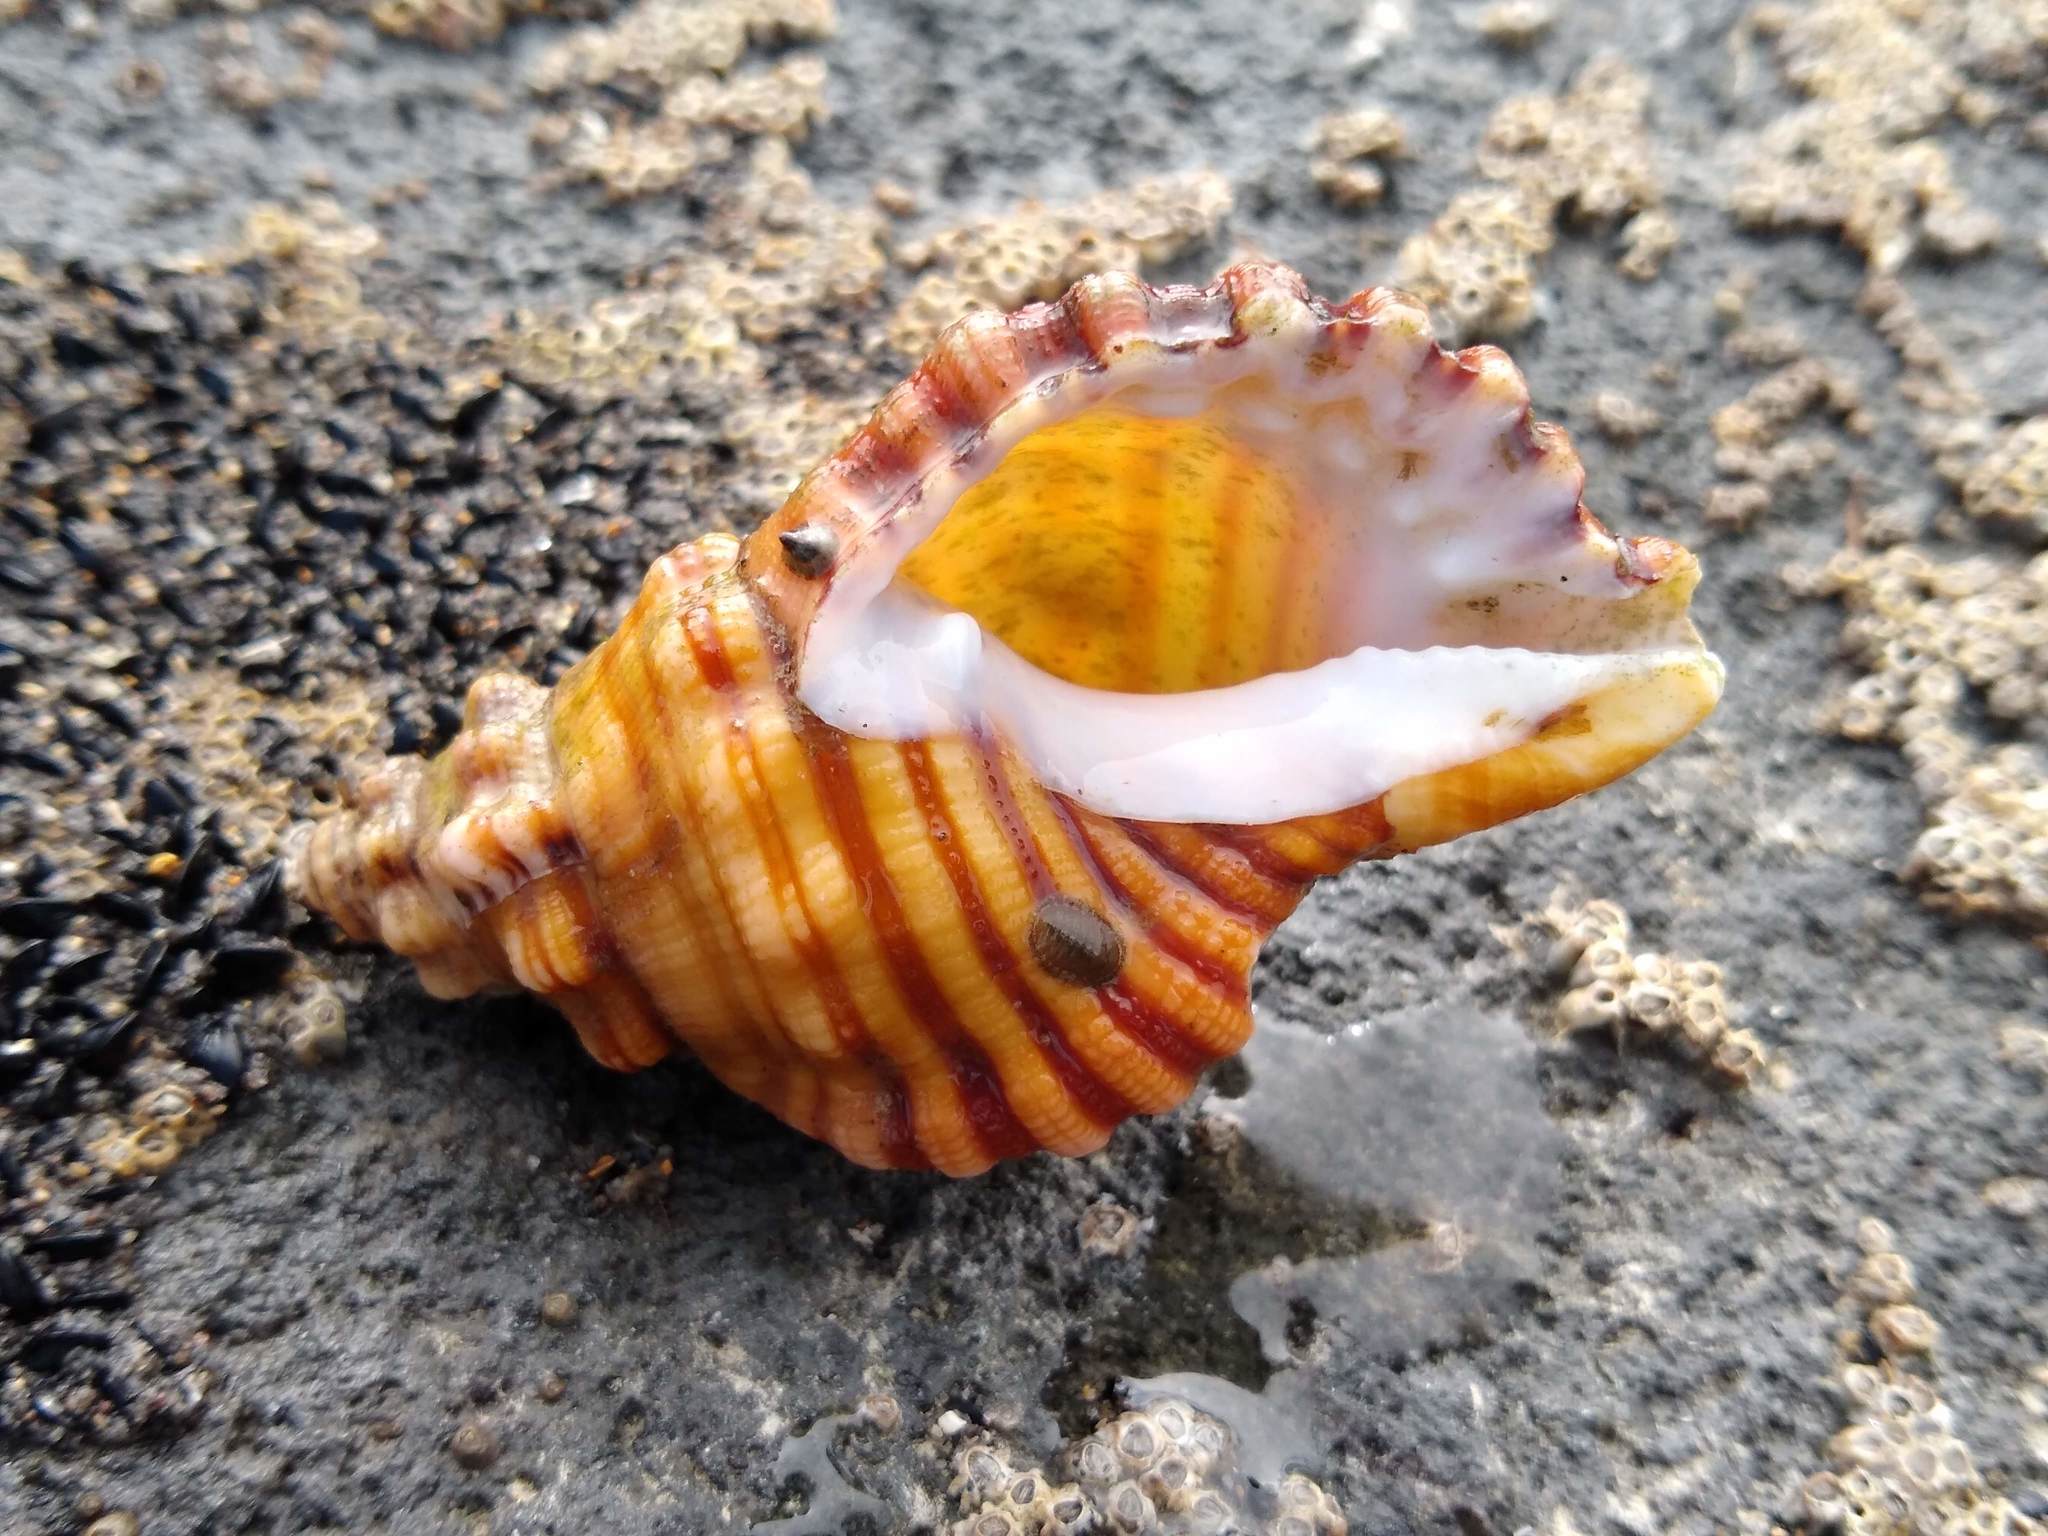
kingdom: Animalia
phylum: Mollusca
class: Gastropoda
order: Littorinimorpha
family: Cymatiidae
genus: Cabestana
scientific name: Cabestana spengleri
